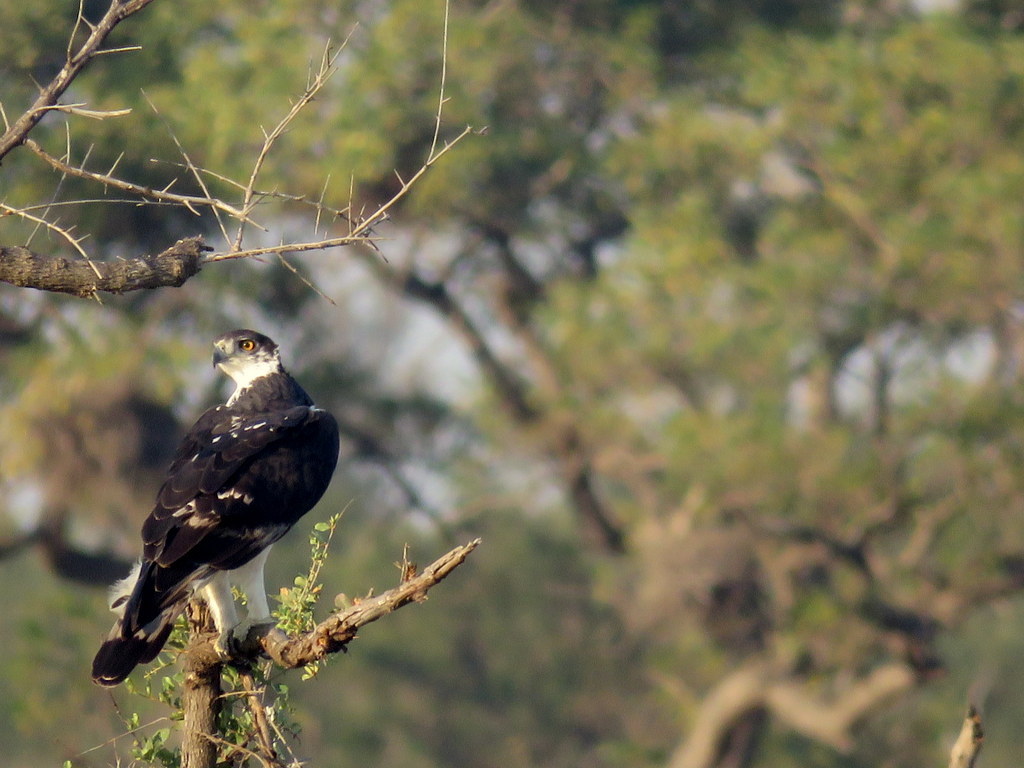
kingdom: Animalia
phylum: Chordata
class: Aves
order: Accipitriformes
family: Accipitridae
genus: Aquila
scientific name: Aquila spilogaster
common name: African hawk-eagle
